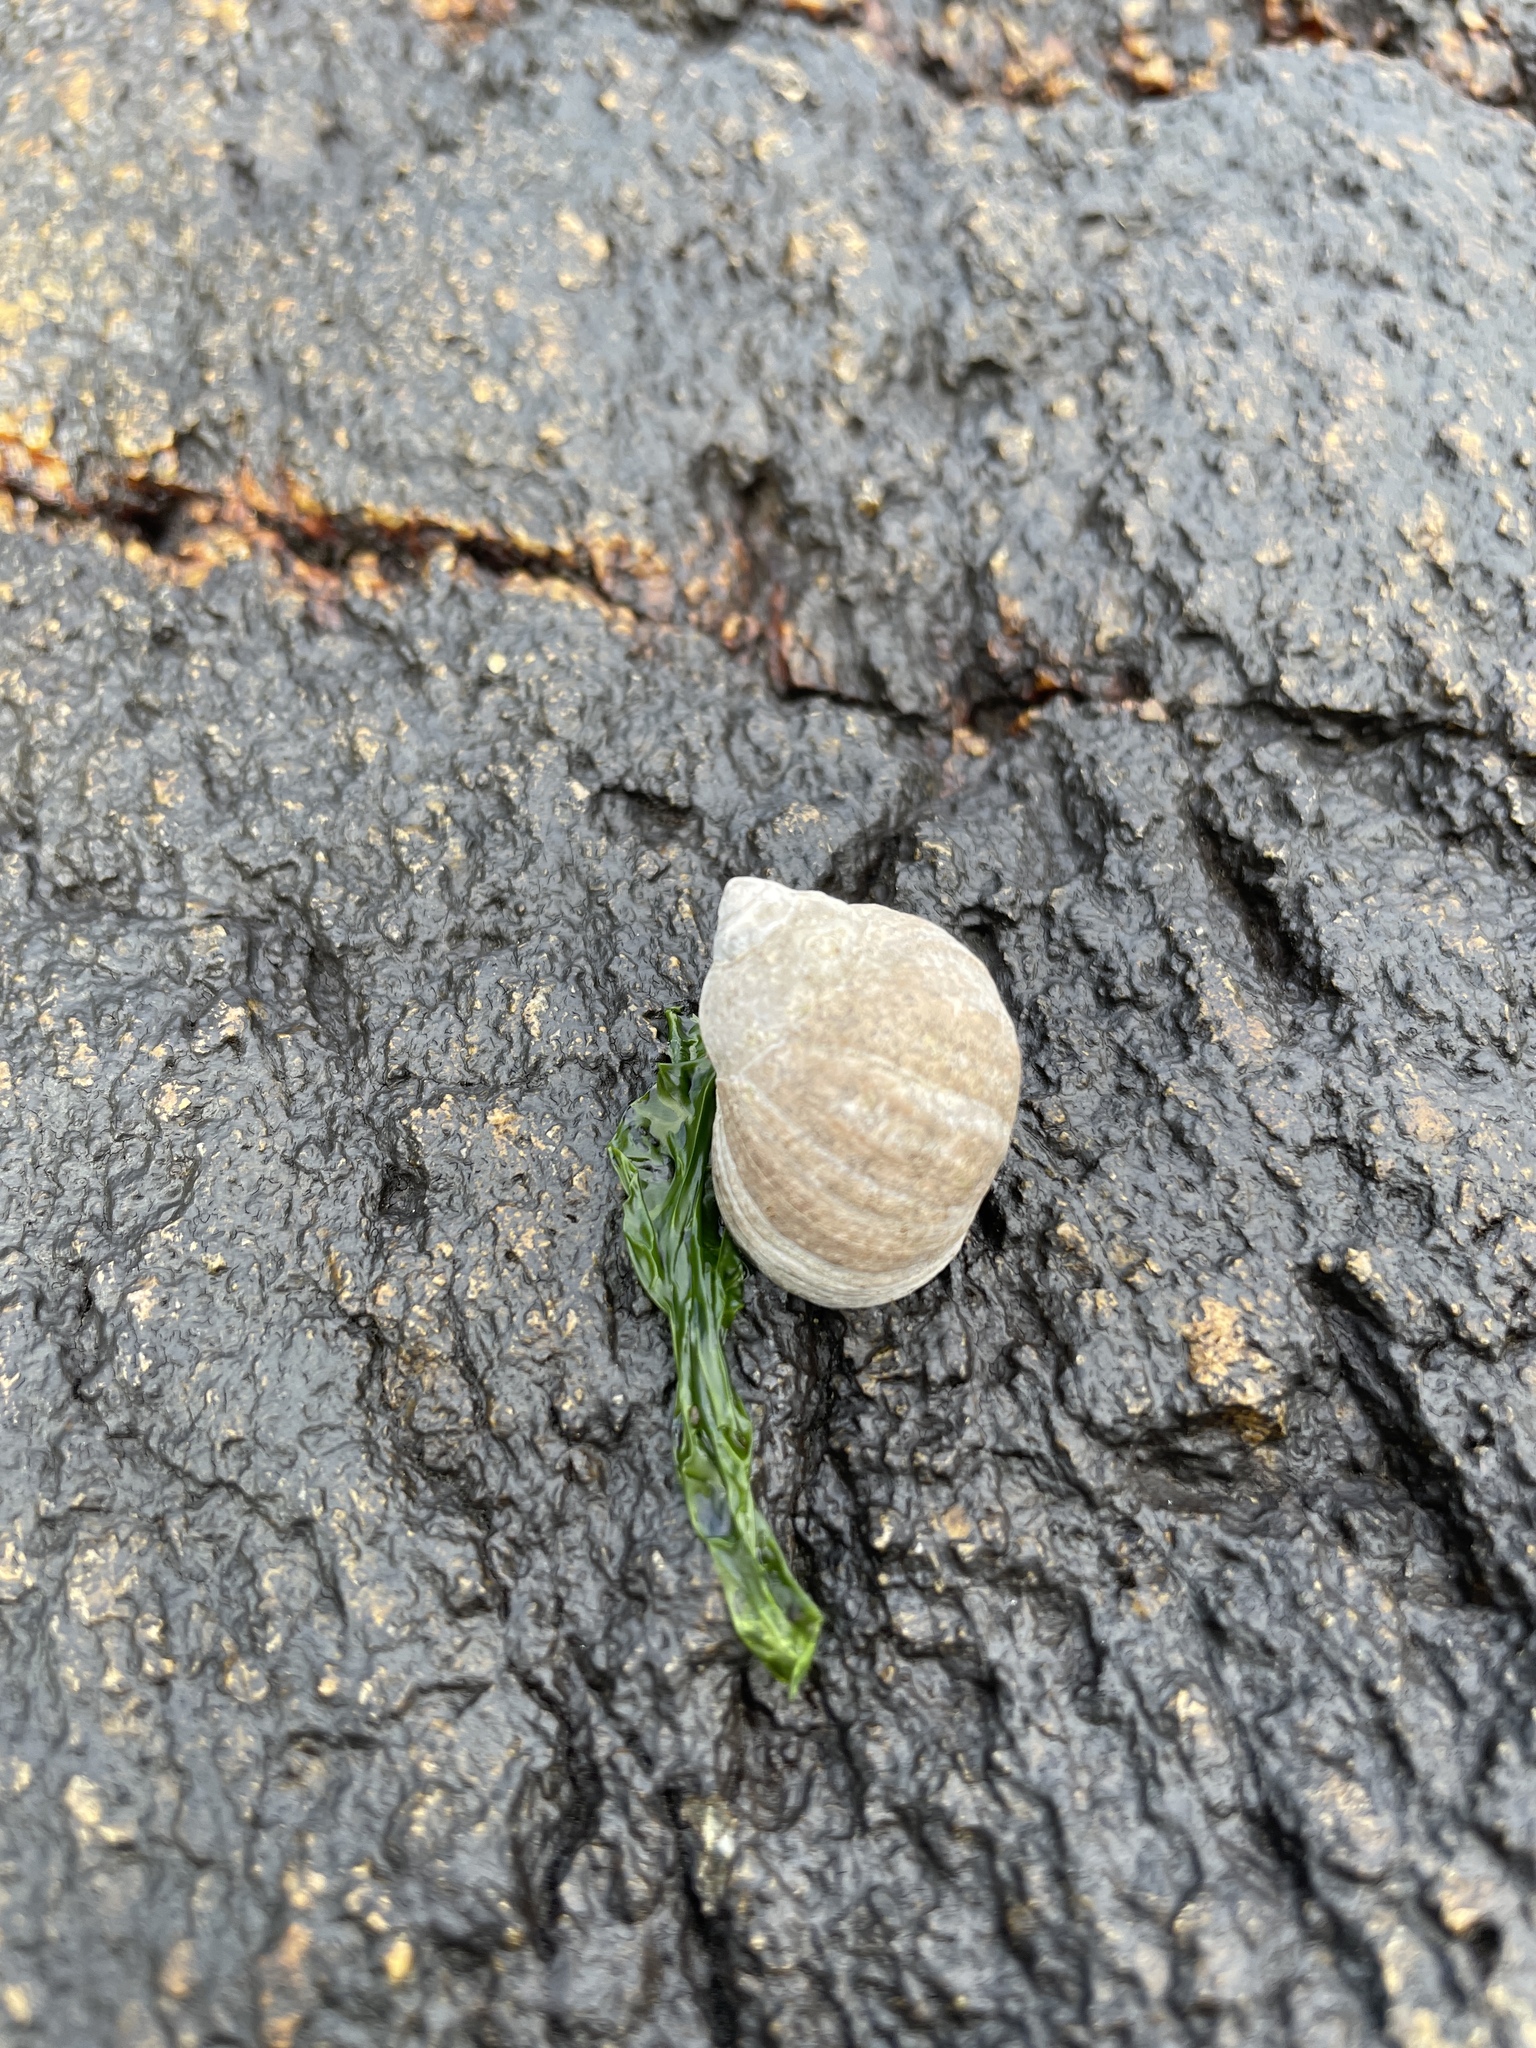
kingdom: Animalia
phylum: Mollusca
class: Gastropoda
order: Littorinimorpha
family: Littorinidae
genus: Littorina
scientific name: Littorina littorea
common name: Common periwinkle
